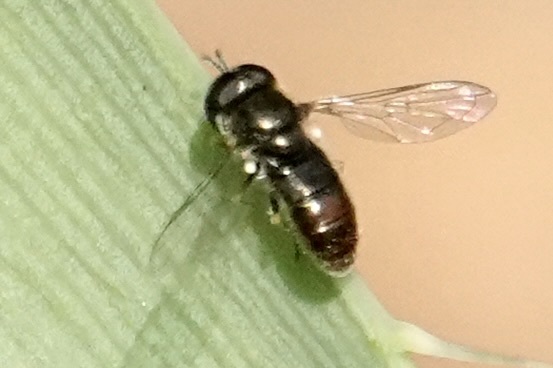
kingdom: Animalia
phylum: Arthropoda
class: Insecta
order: Diptera
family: Syrphidae
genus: Paragus
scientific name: Paragus haemorrhous
